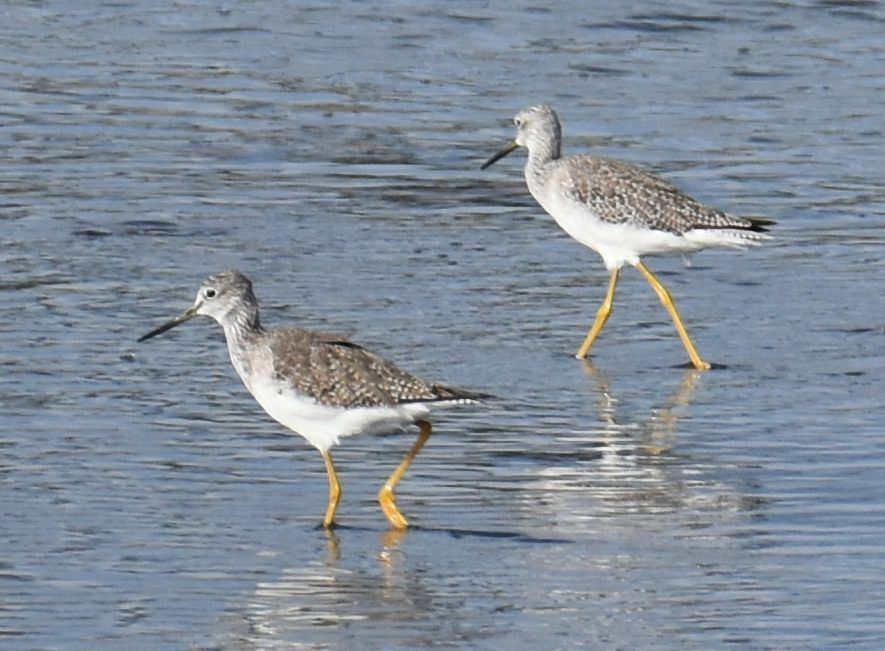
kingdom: Animalia
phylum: Chordata
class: Aves
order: Charadriiformes
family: Scolopacidae
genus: Tringa
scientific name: Tringa melanoleuca
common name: Greater yellowlegs
